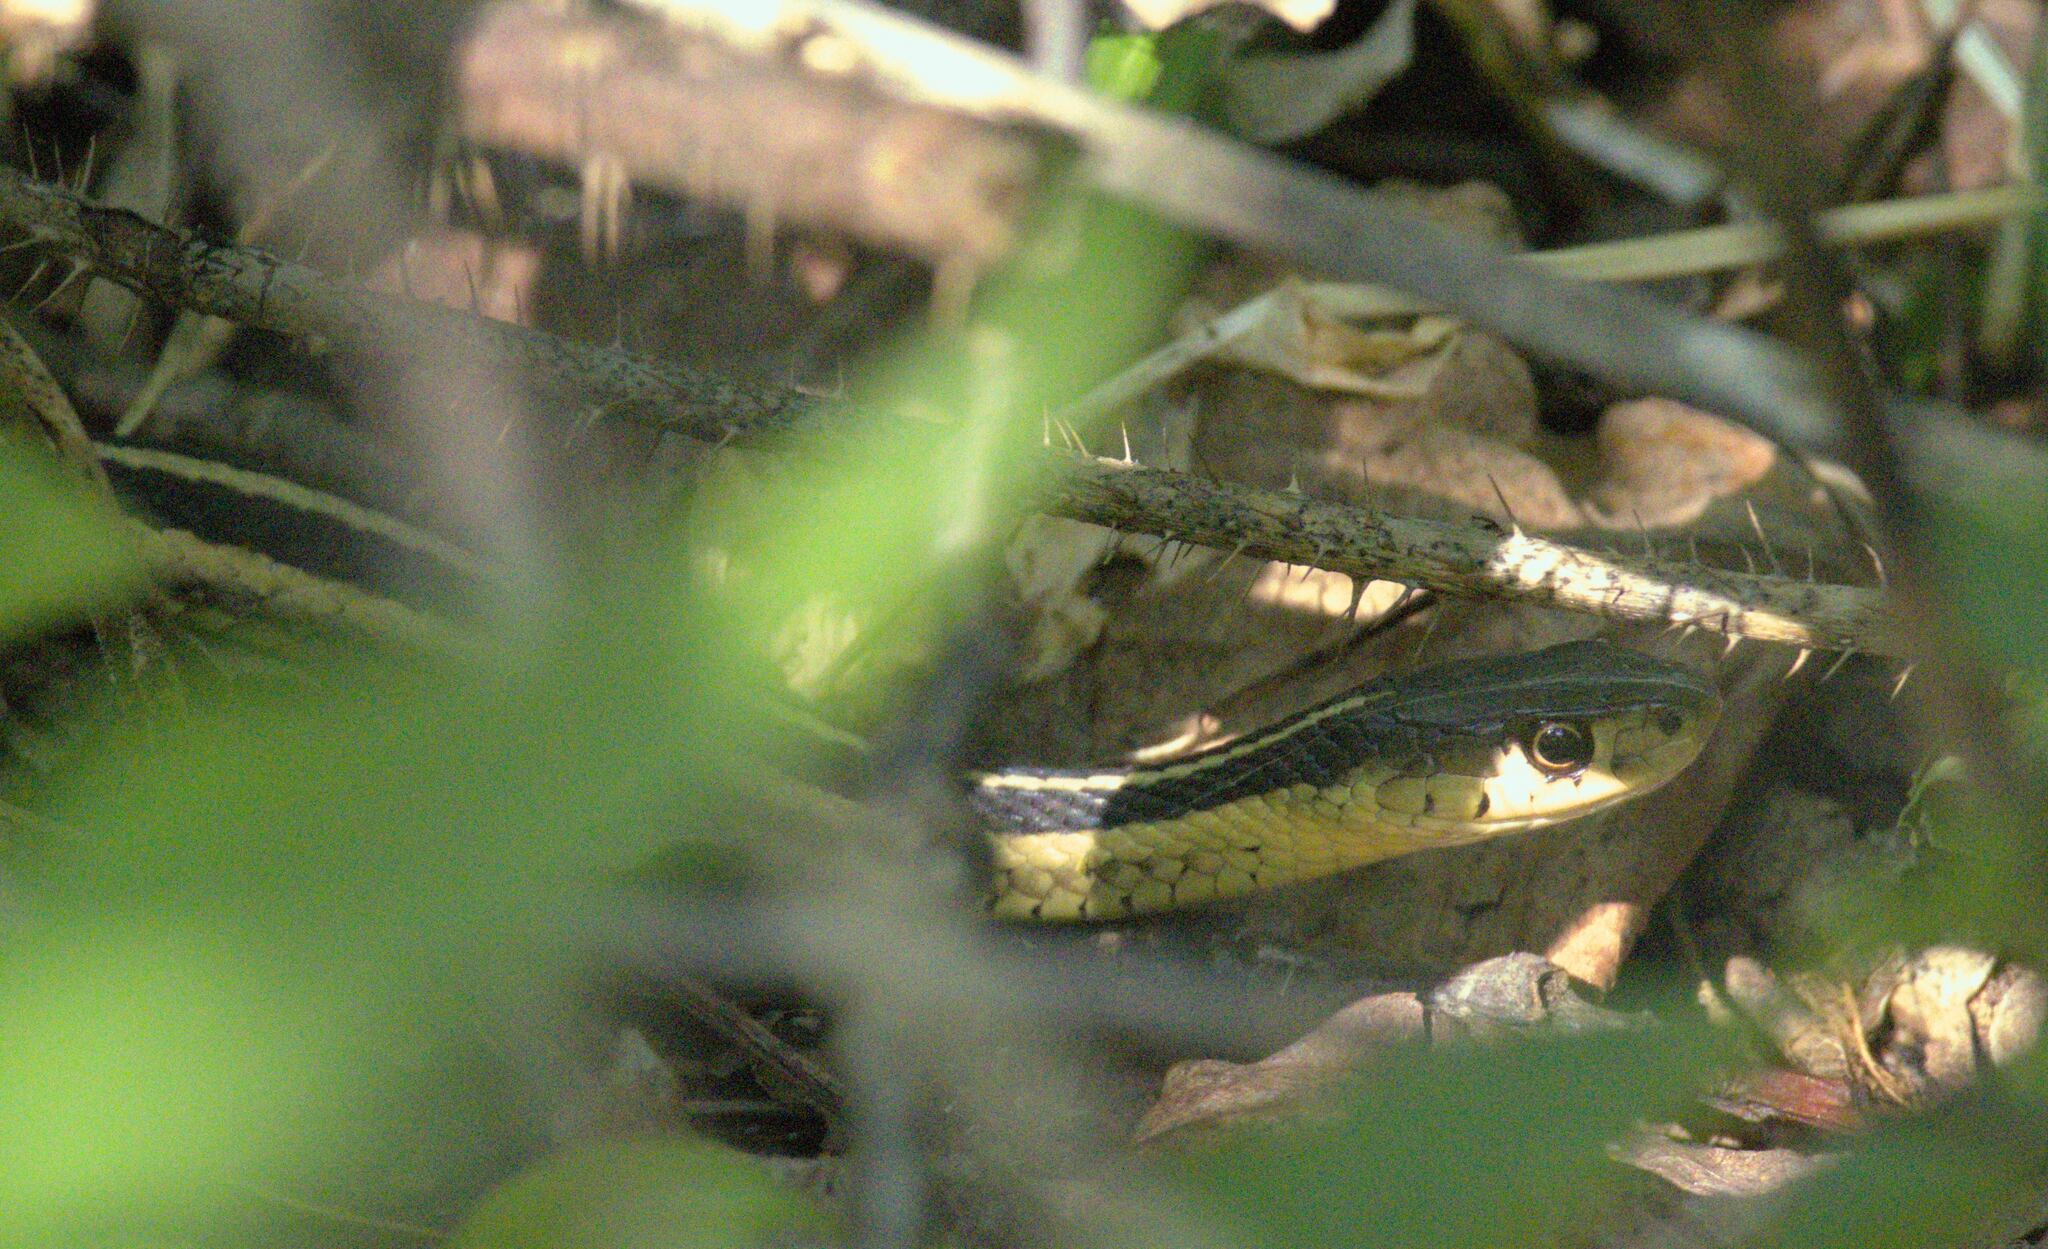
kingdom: Animalia
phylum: Chordata
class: Squamata
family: Colubridae
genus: Thamnophis
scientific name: Thamnophis sirtalis
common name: Common garter snake
